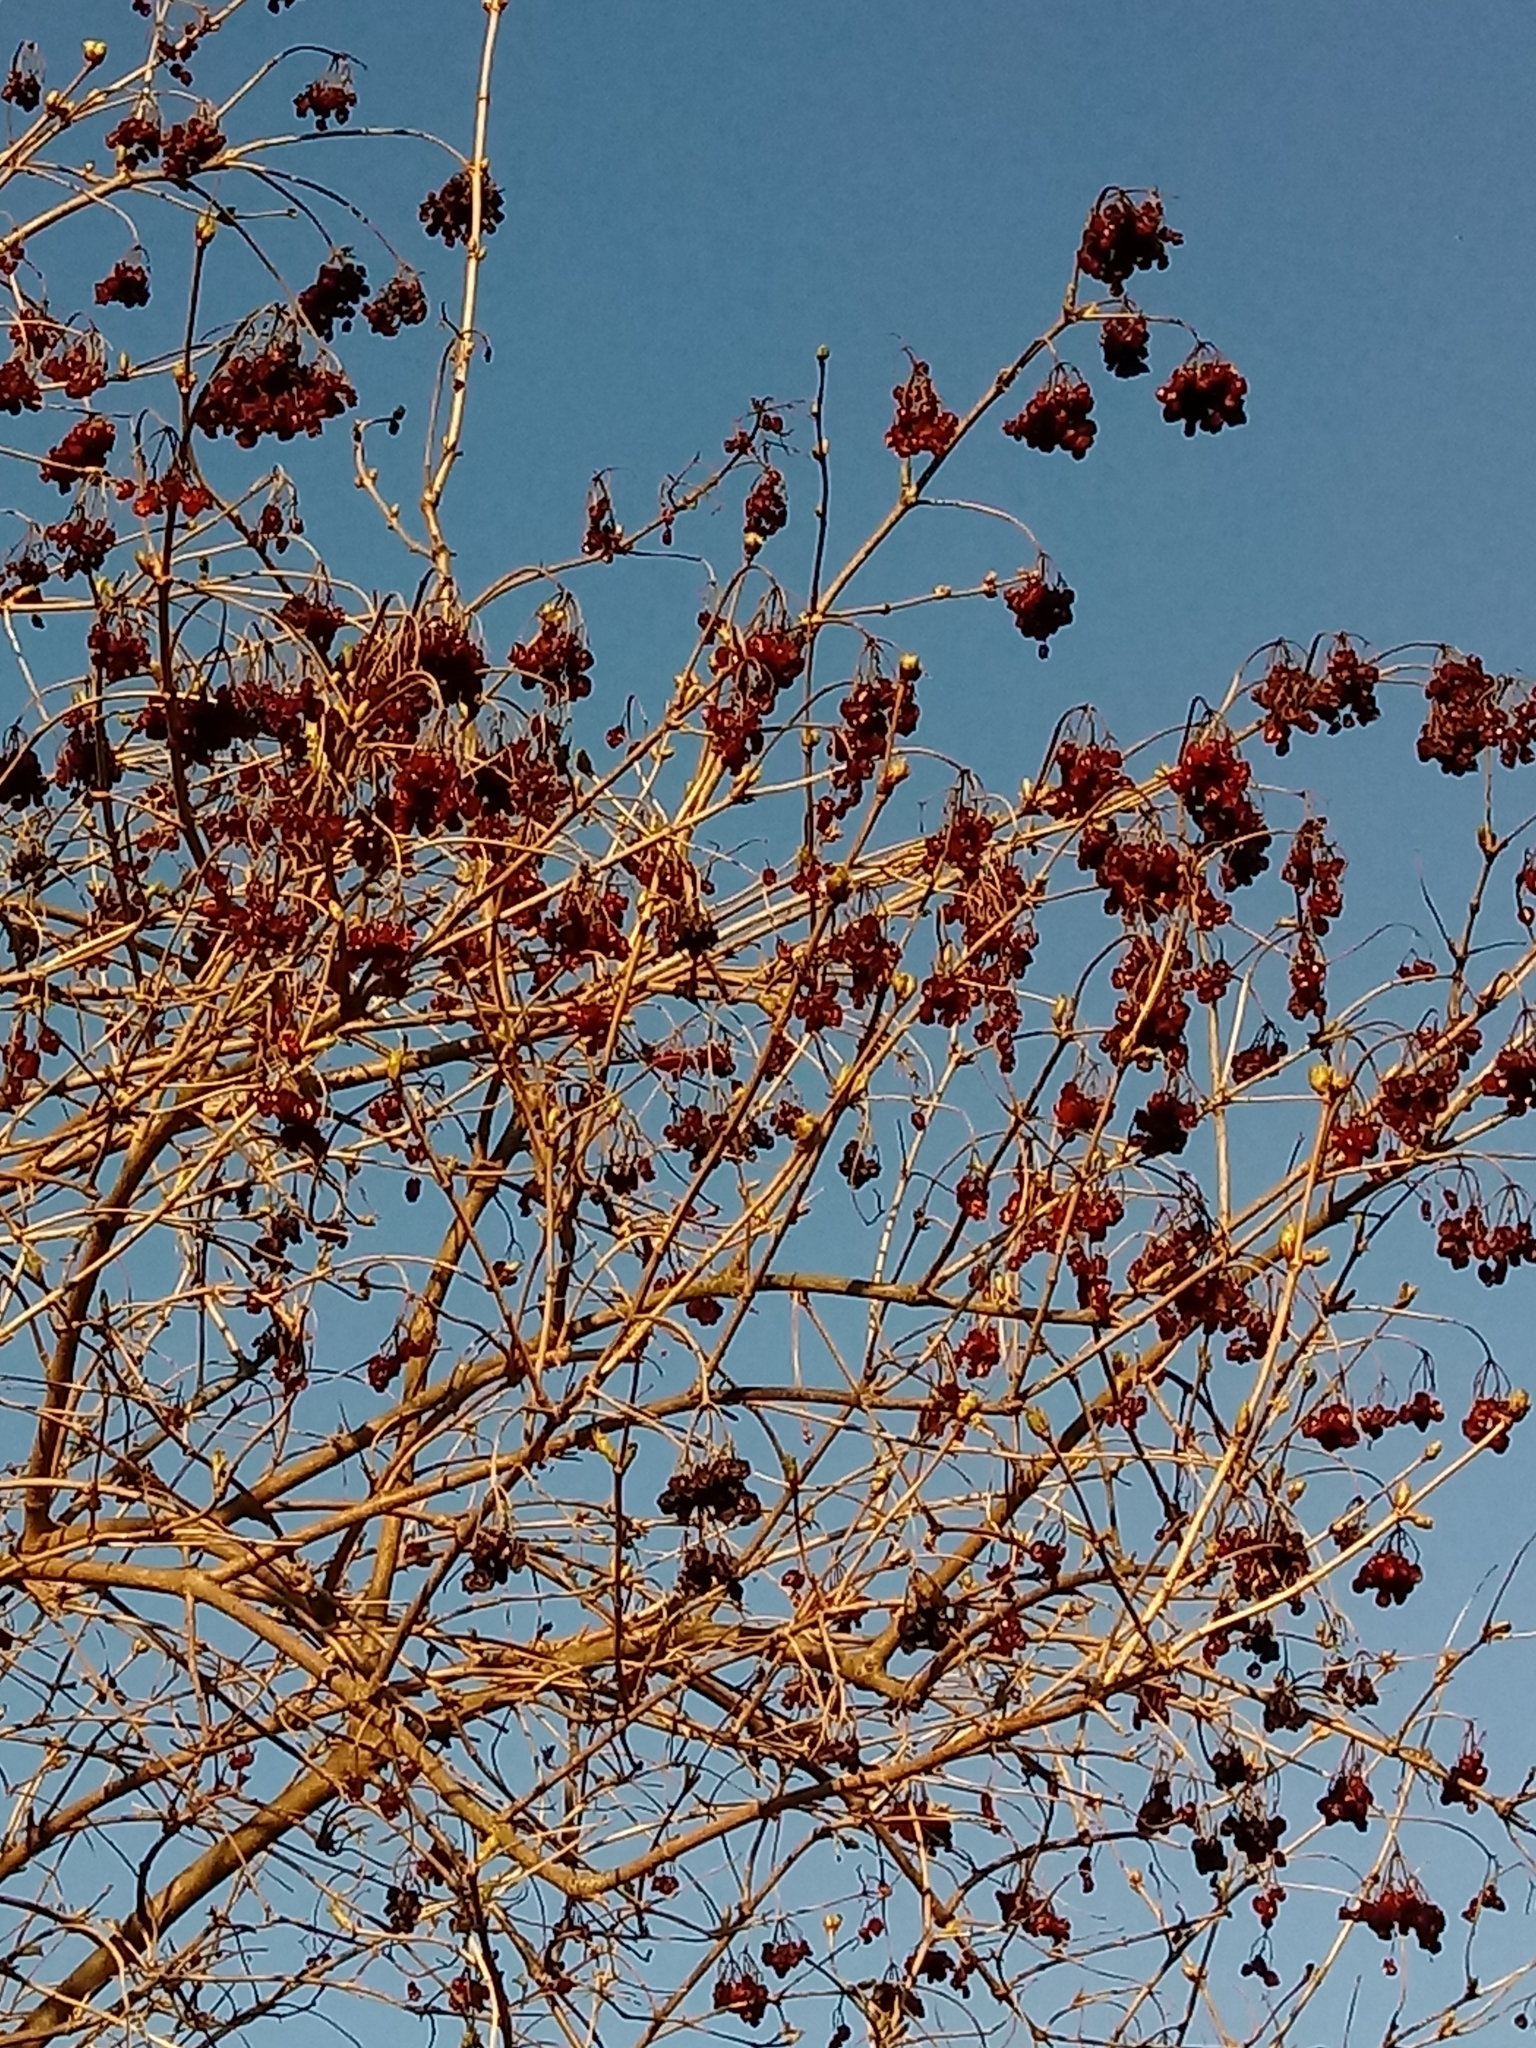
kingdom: Plantae
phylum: Tracheophyta
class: Magnoliopsida
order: Dipsacales
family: Viburnaceae
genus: Viburnum
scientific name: Viburnum opulus
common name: Guelder-rose
